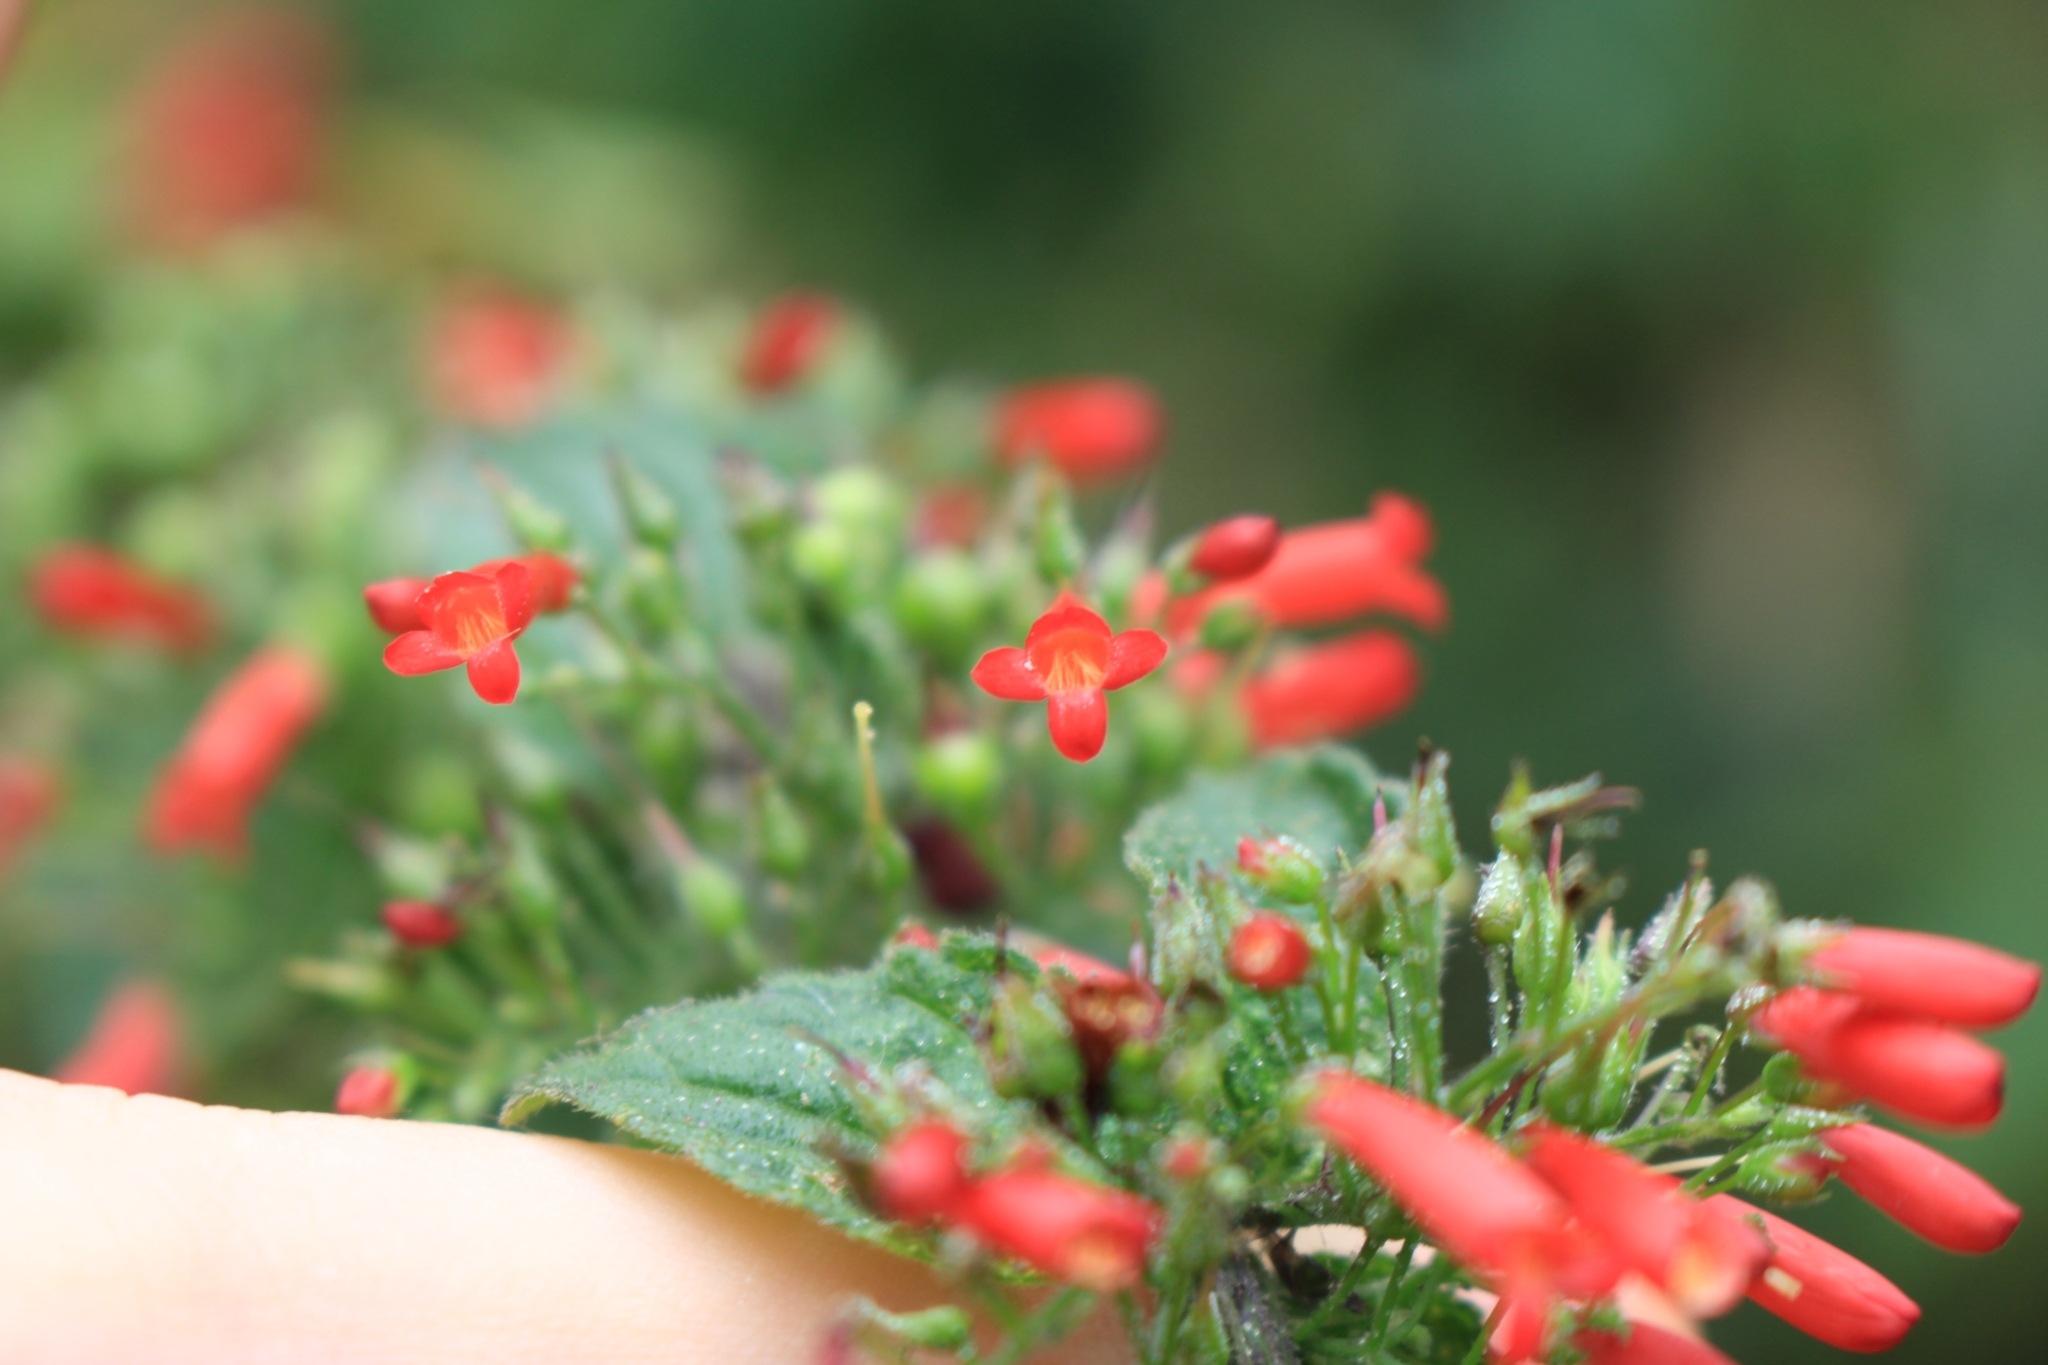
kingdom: Plantae
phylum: Tracheophyta
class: Magnoliopsida
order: Lamiales
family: Plantaginaceae
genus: Russelia
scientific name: Russelia sarmentosa
